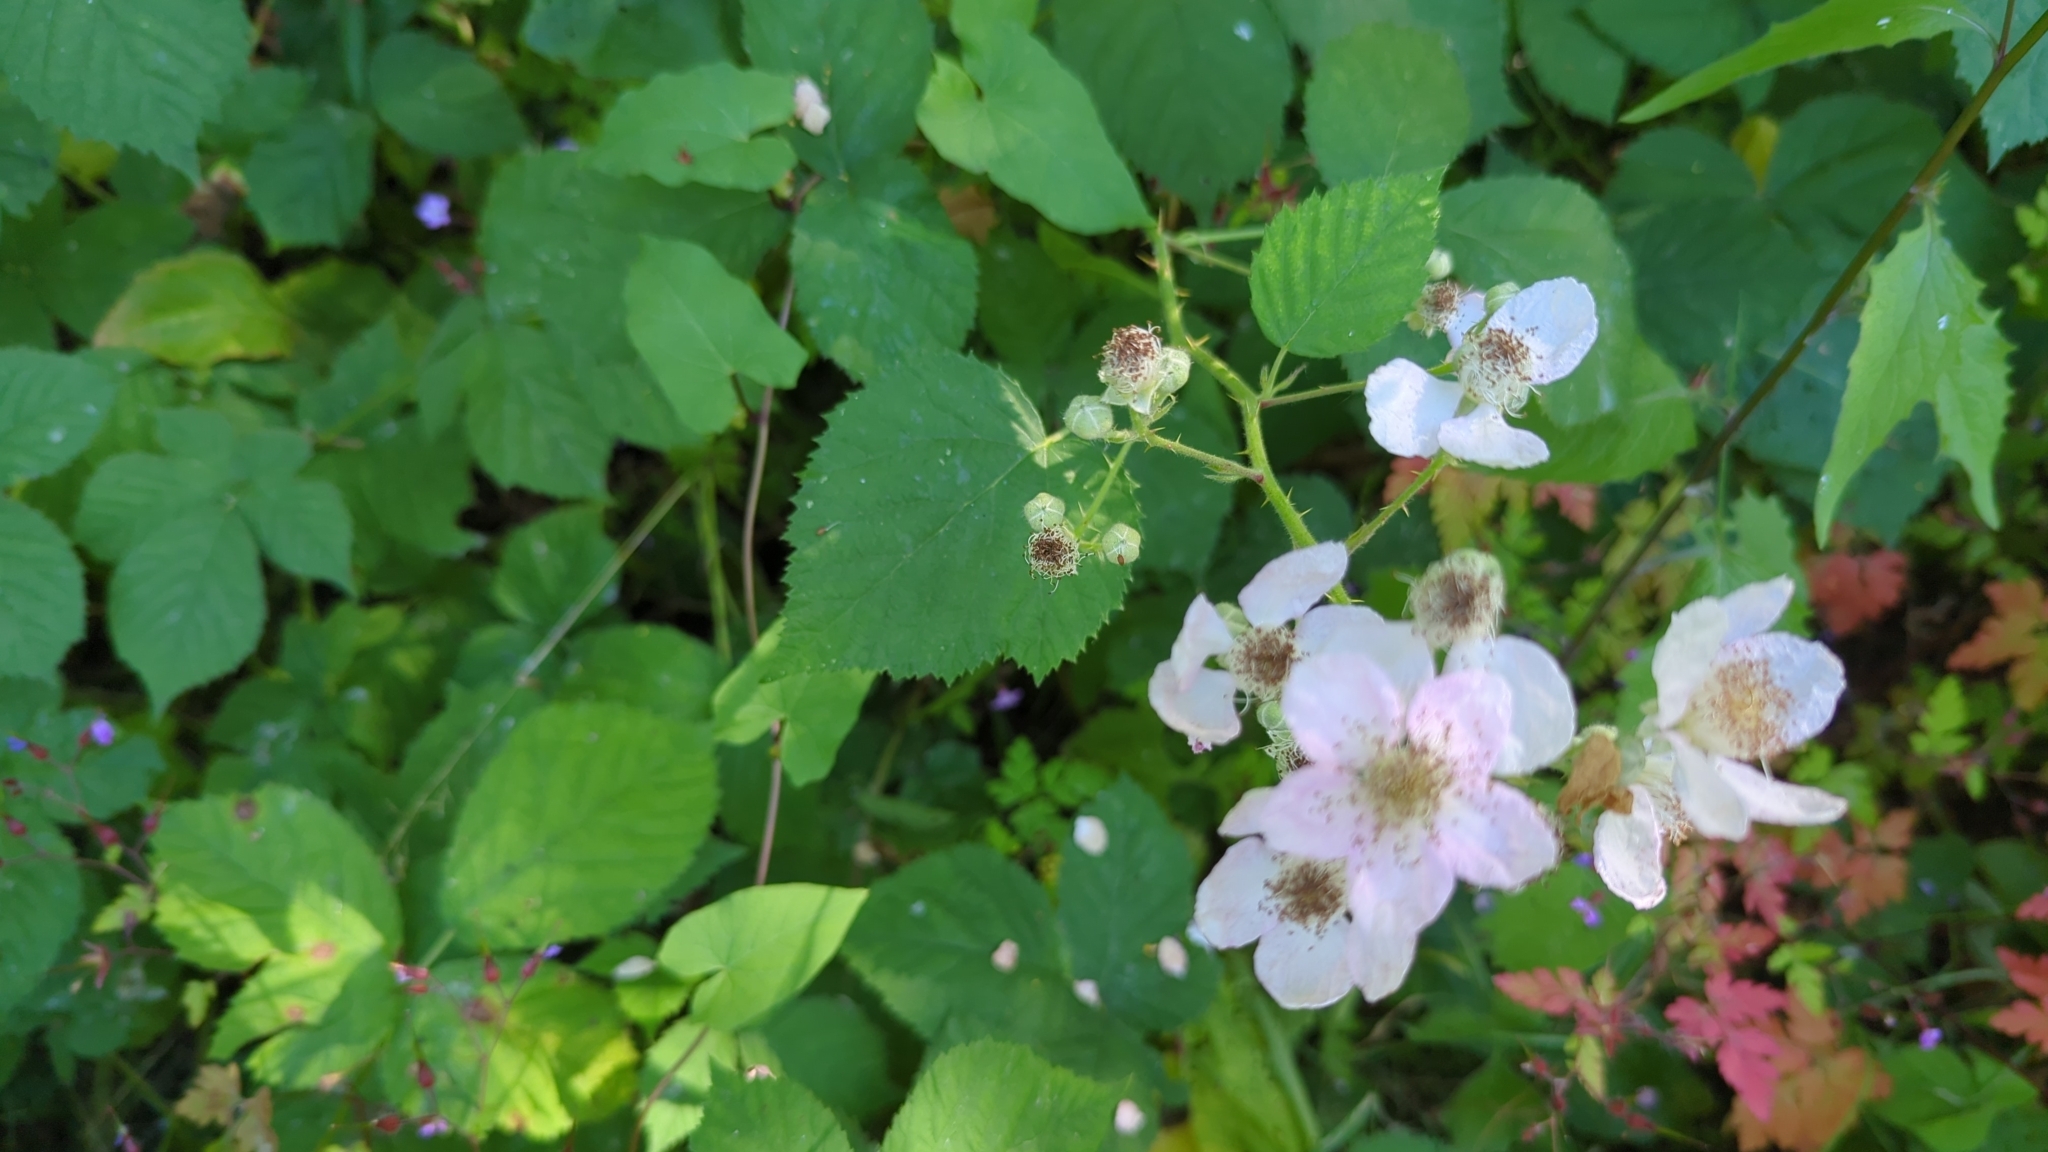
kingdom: Plantae
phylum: Tracheophyta
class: Magnoliopsida
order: Rosales
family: Rosaceae
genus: Rubus
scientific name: Rubus bifrons
